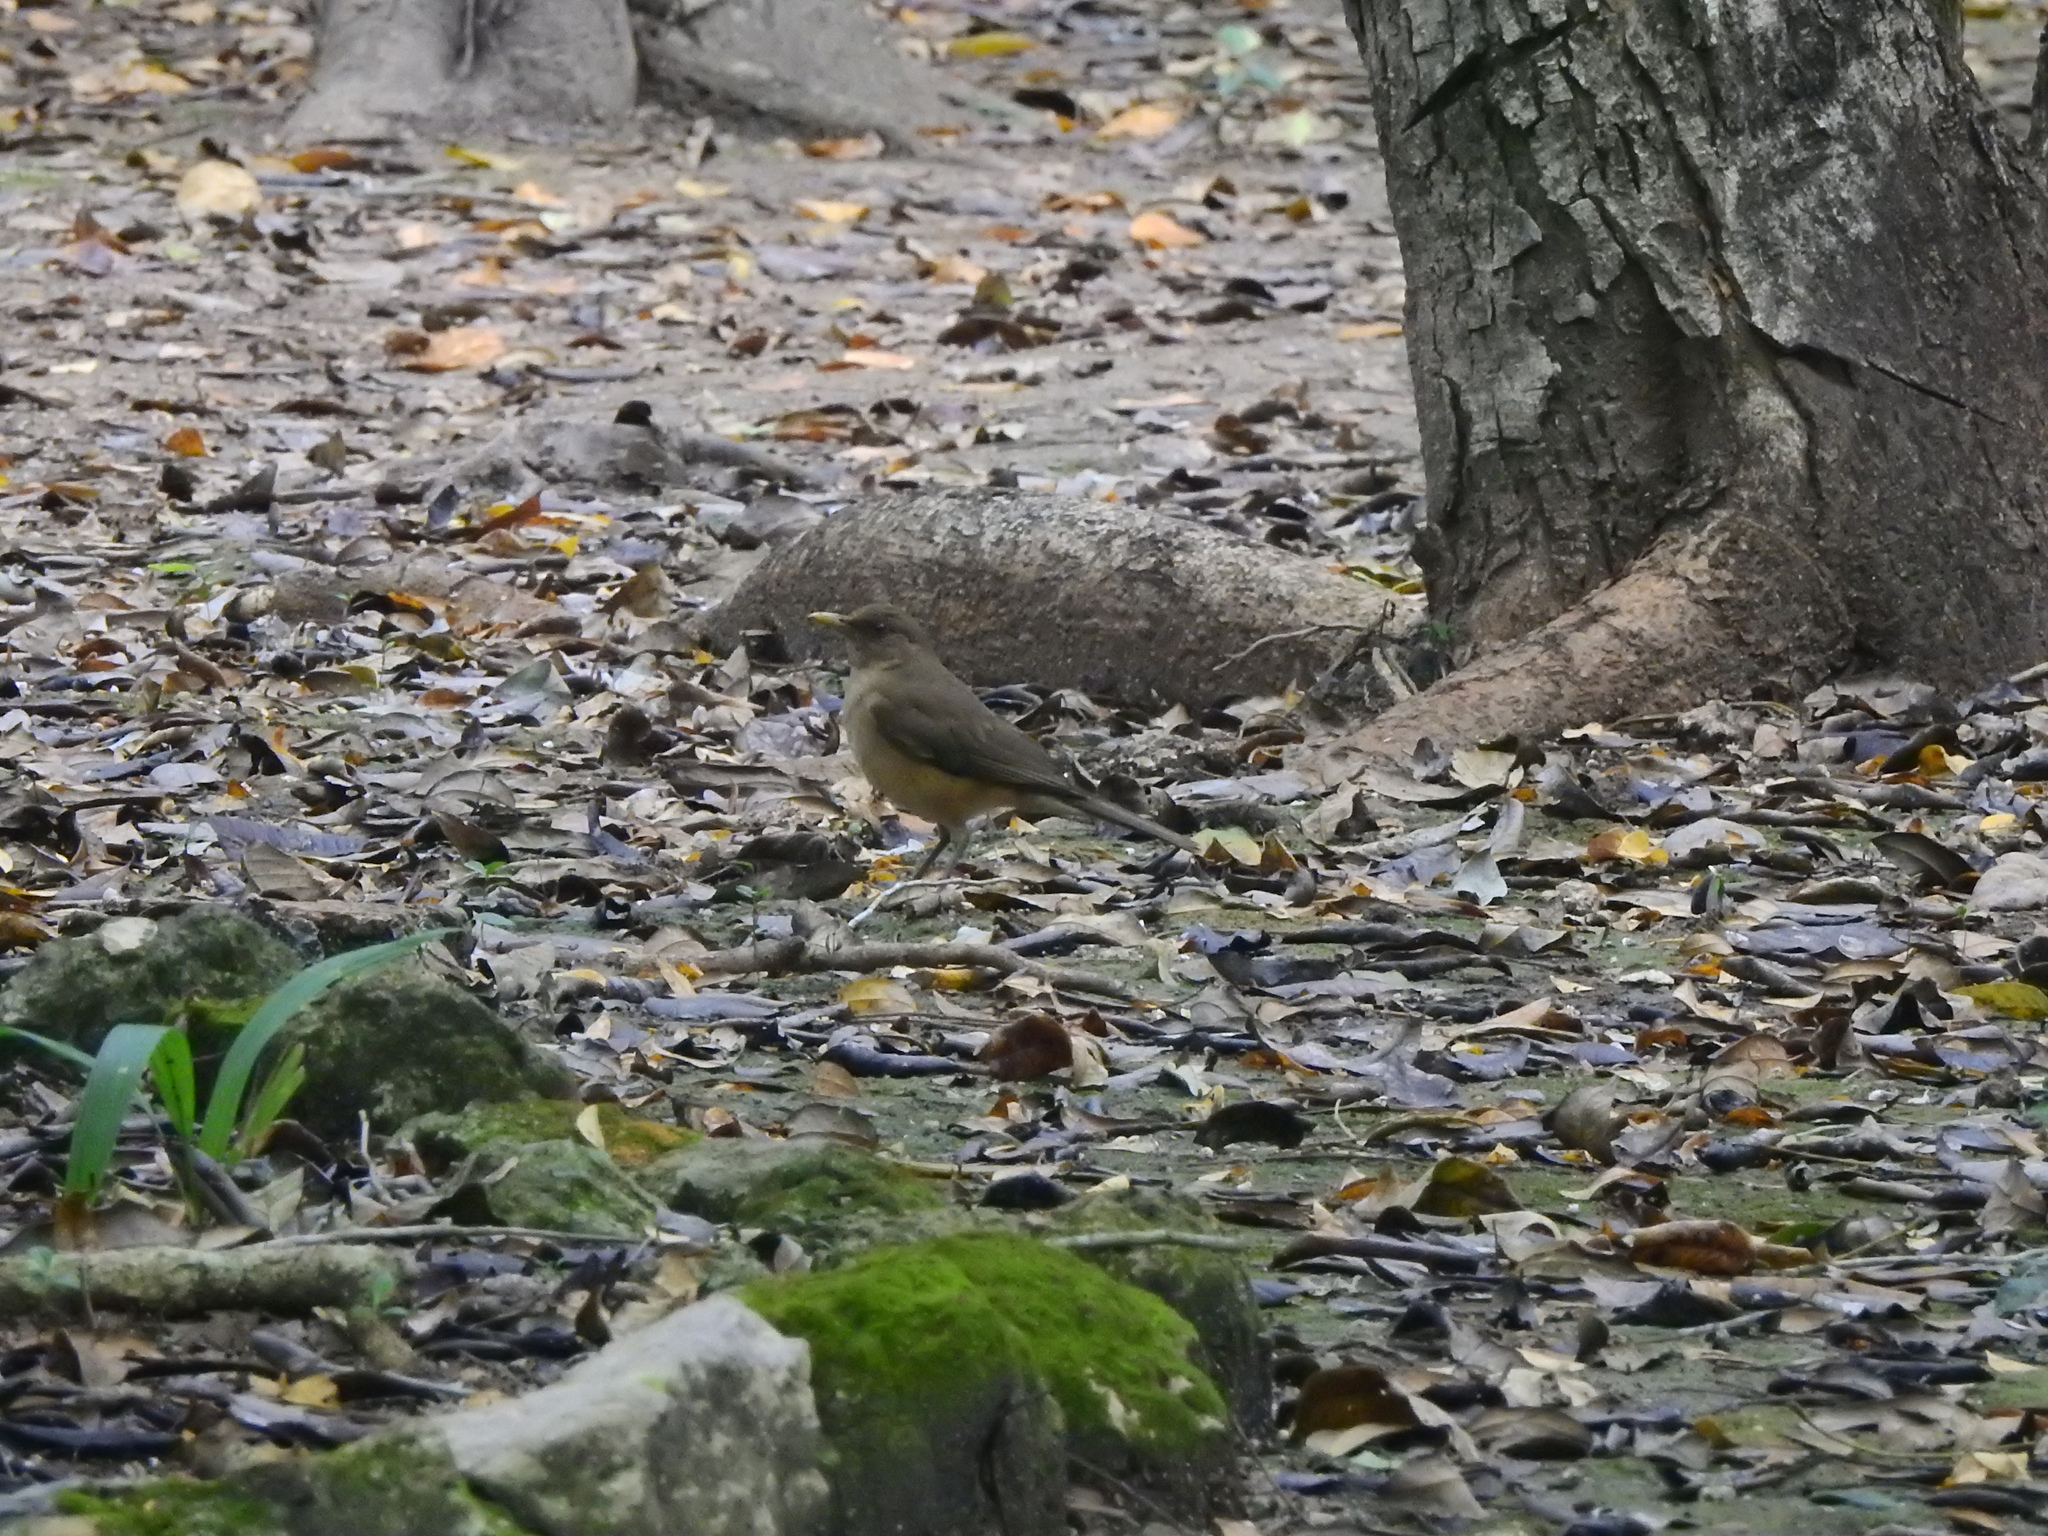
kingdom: Animalia
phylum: Chordata
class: Aves
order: Passeriformes
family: Turdidae
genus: Turdus
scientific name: Turdus grayi
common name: Clay-colored thrush
